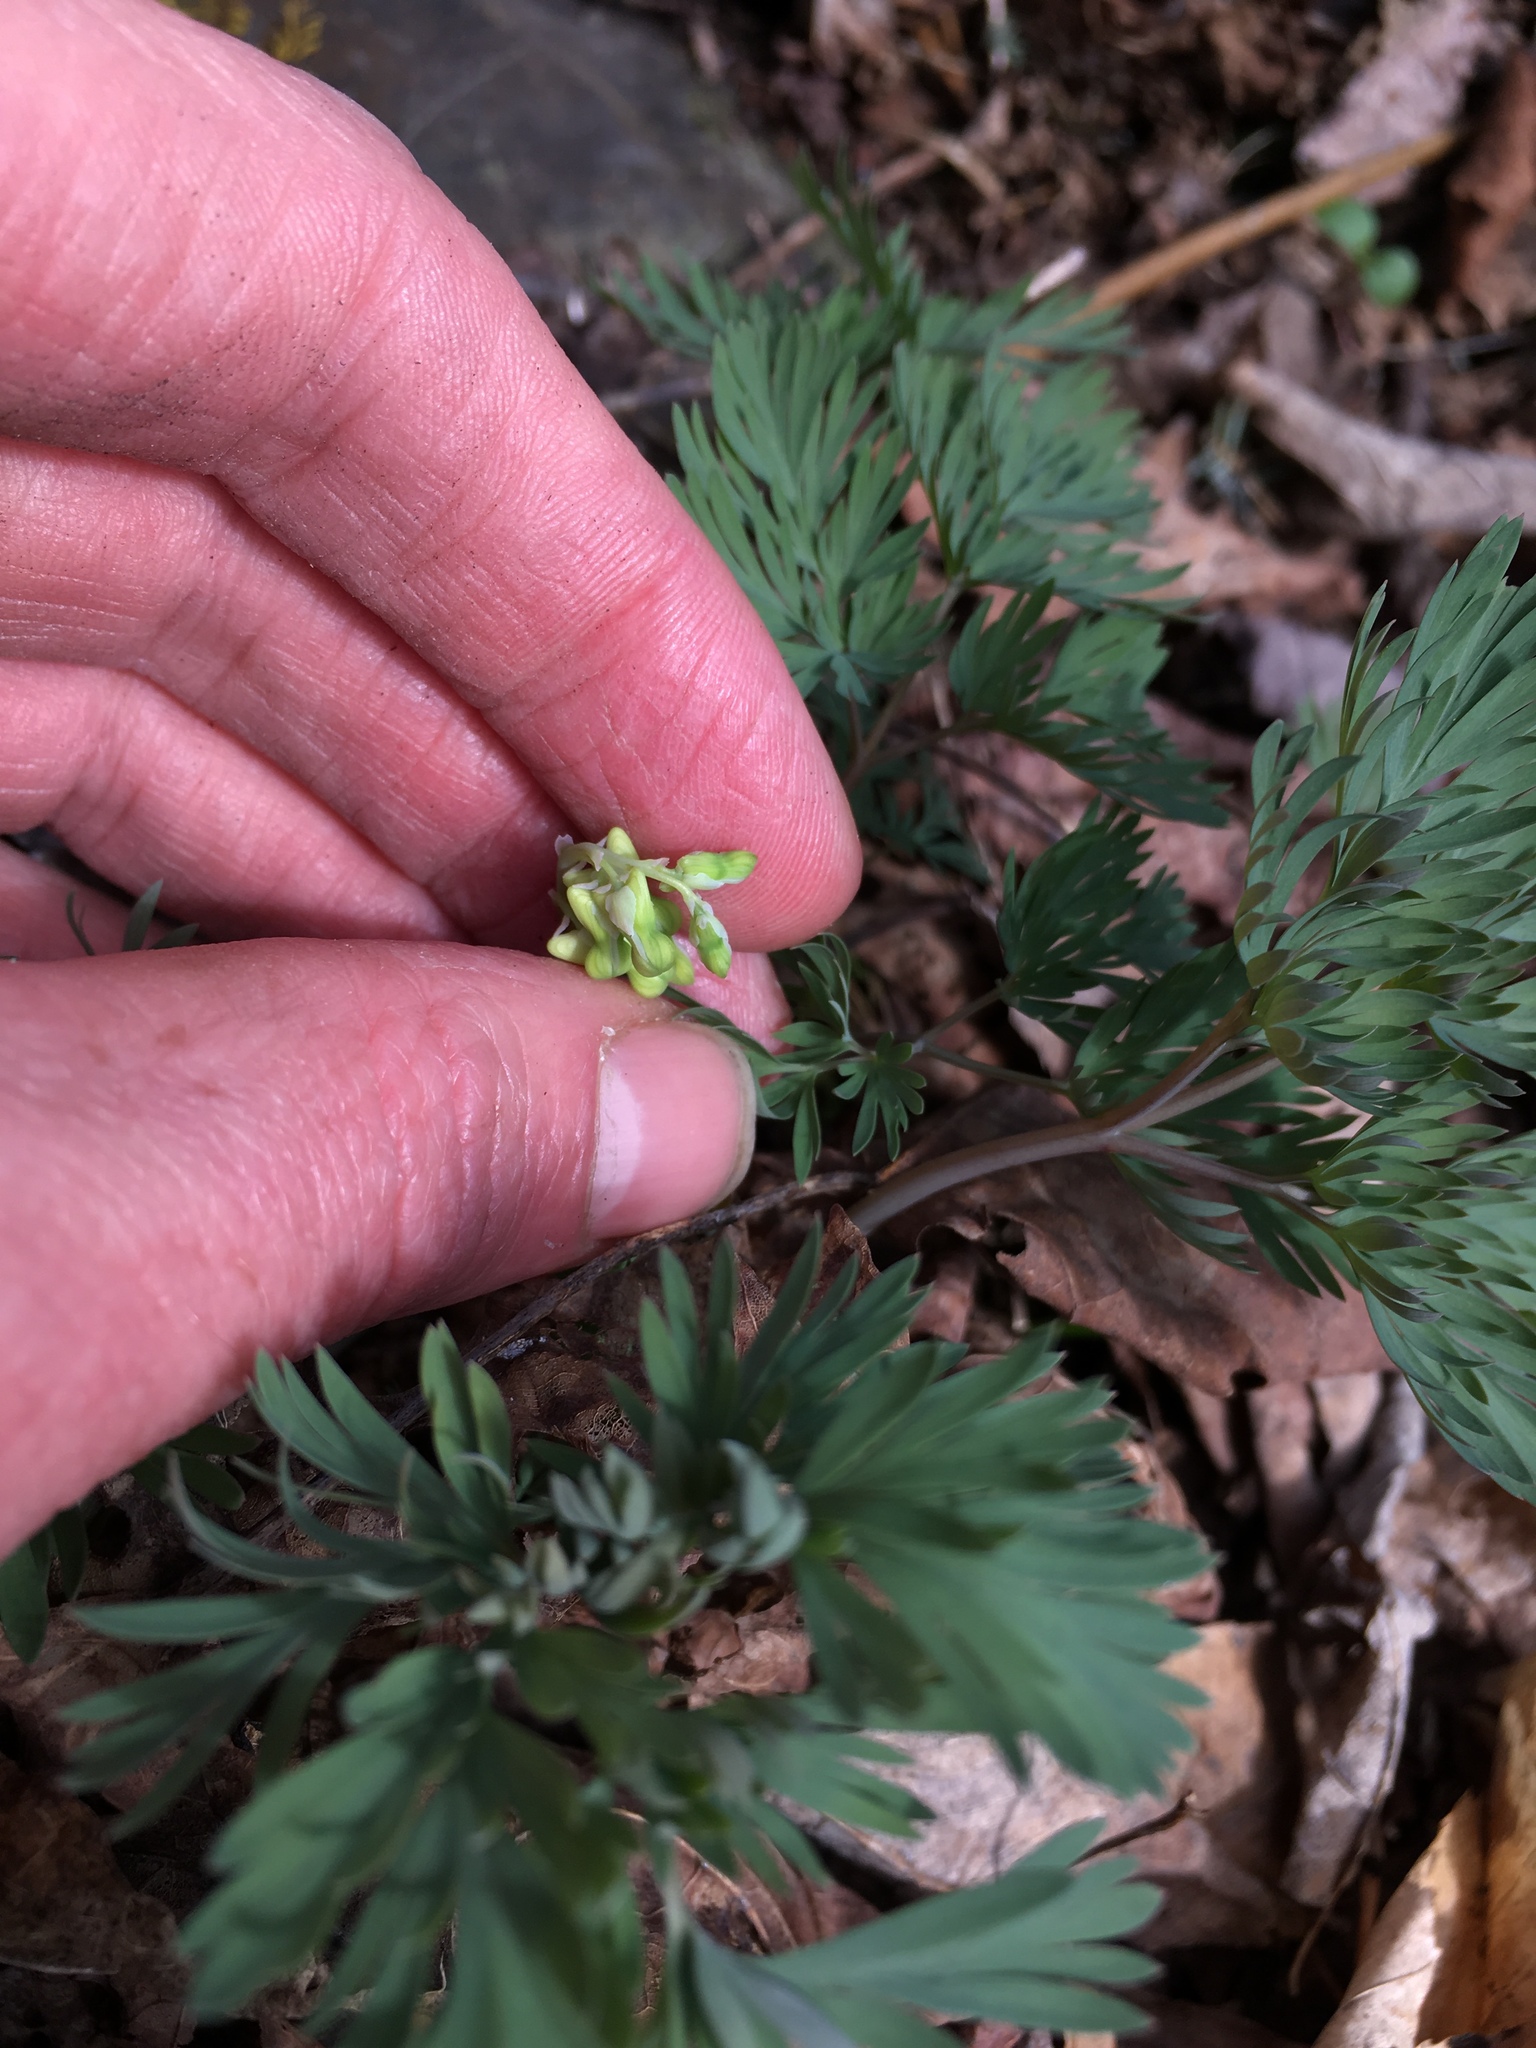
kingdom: Plantae
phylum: Tracheophyta
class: Magnoliopsida
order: Ranunculales
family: Papaveraceae
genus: Dicentra
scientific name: Dicentra cucullaria
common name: Dutchman's breeches
